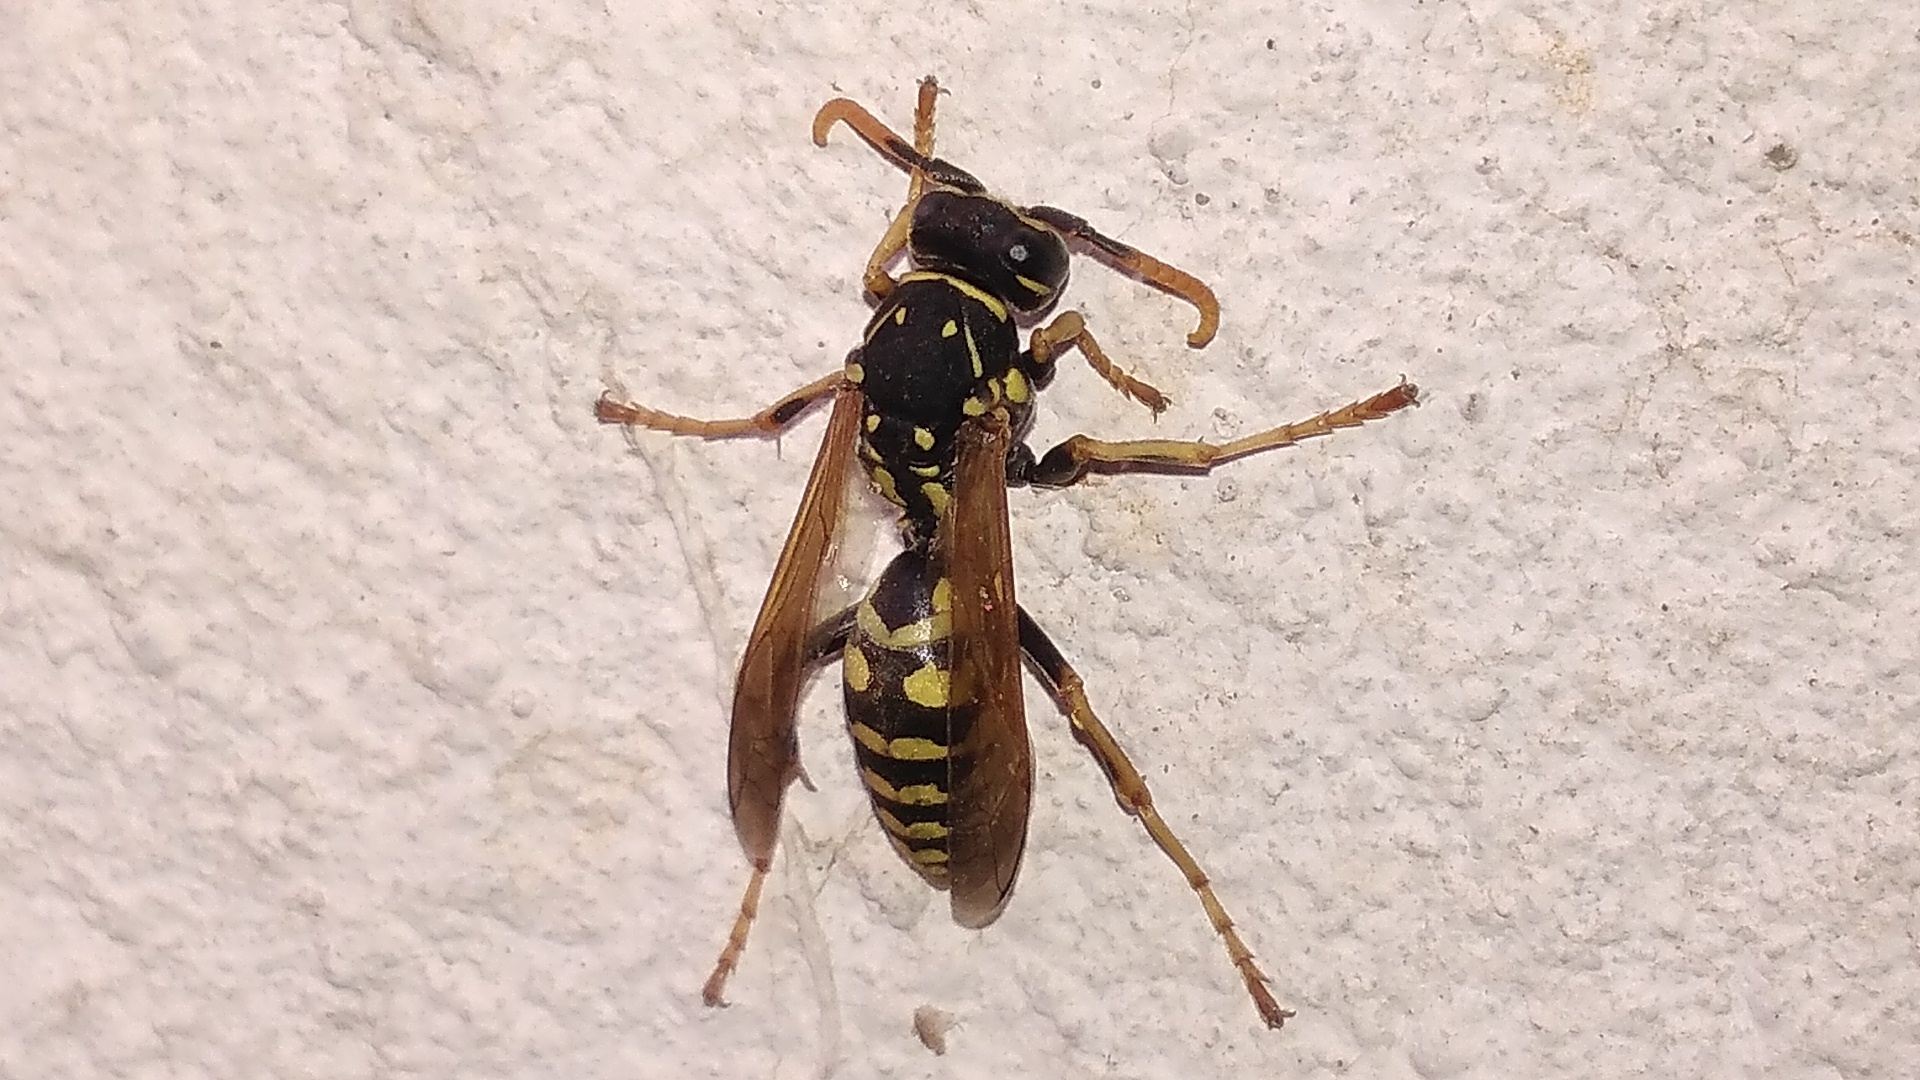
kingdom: Animalia
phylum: Arthropoda
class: Insecta
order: Hymenoptera
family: Eumenidae
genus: Polistes
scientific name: Polistes dominula
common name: Paper wasp
